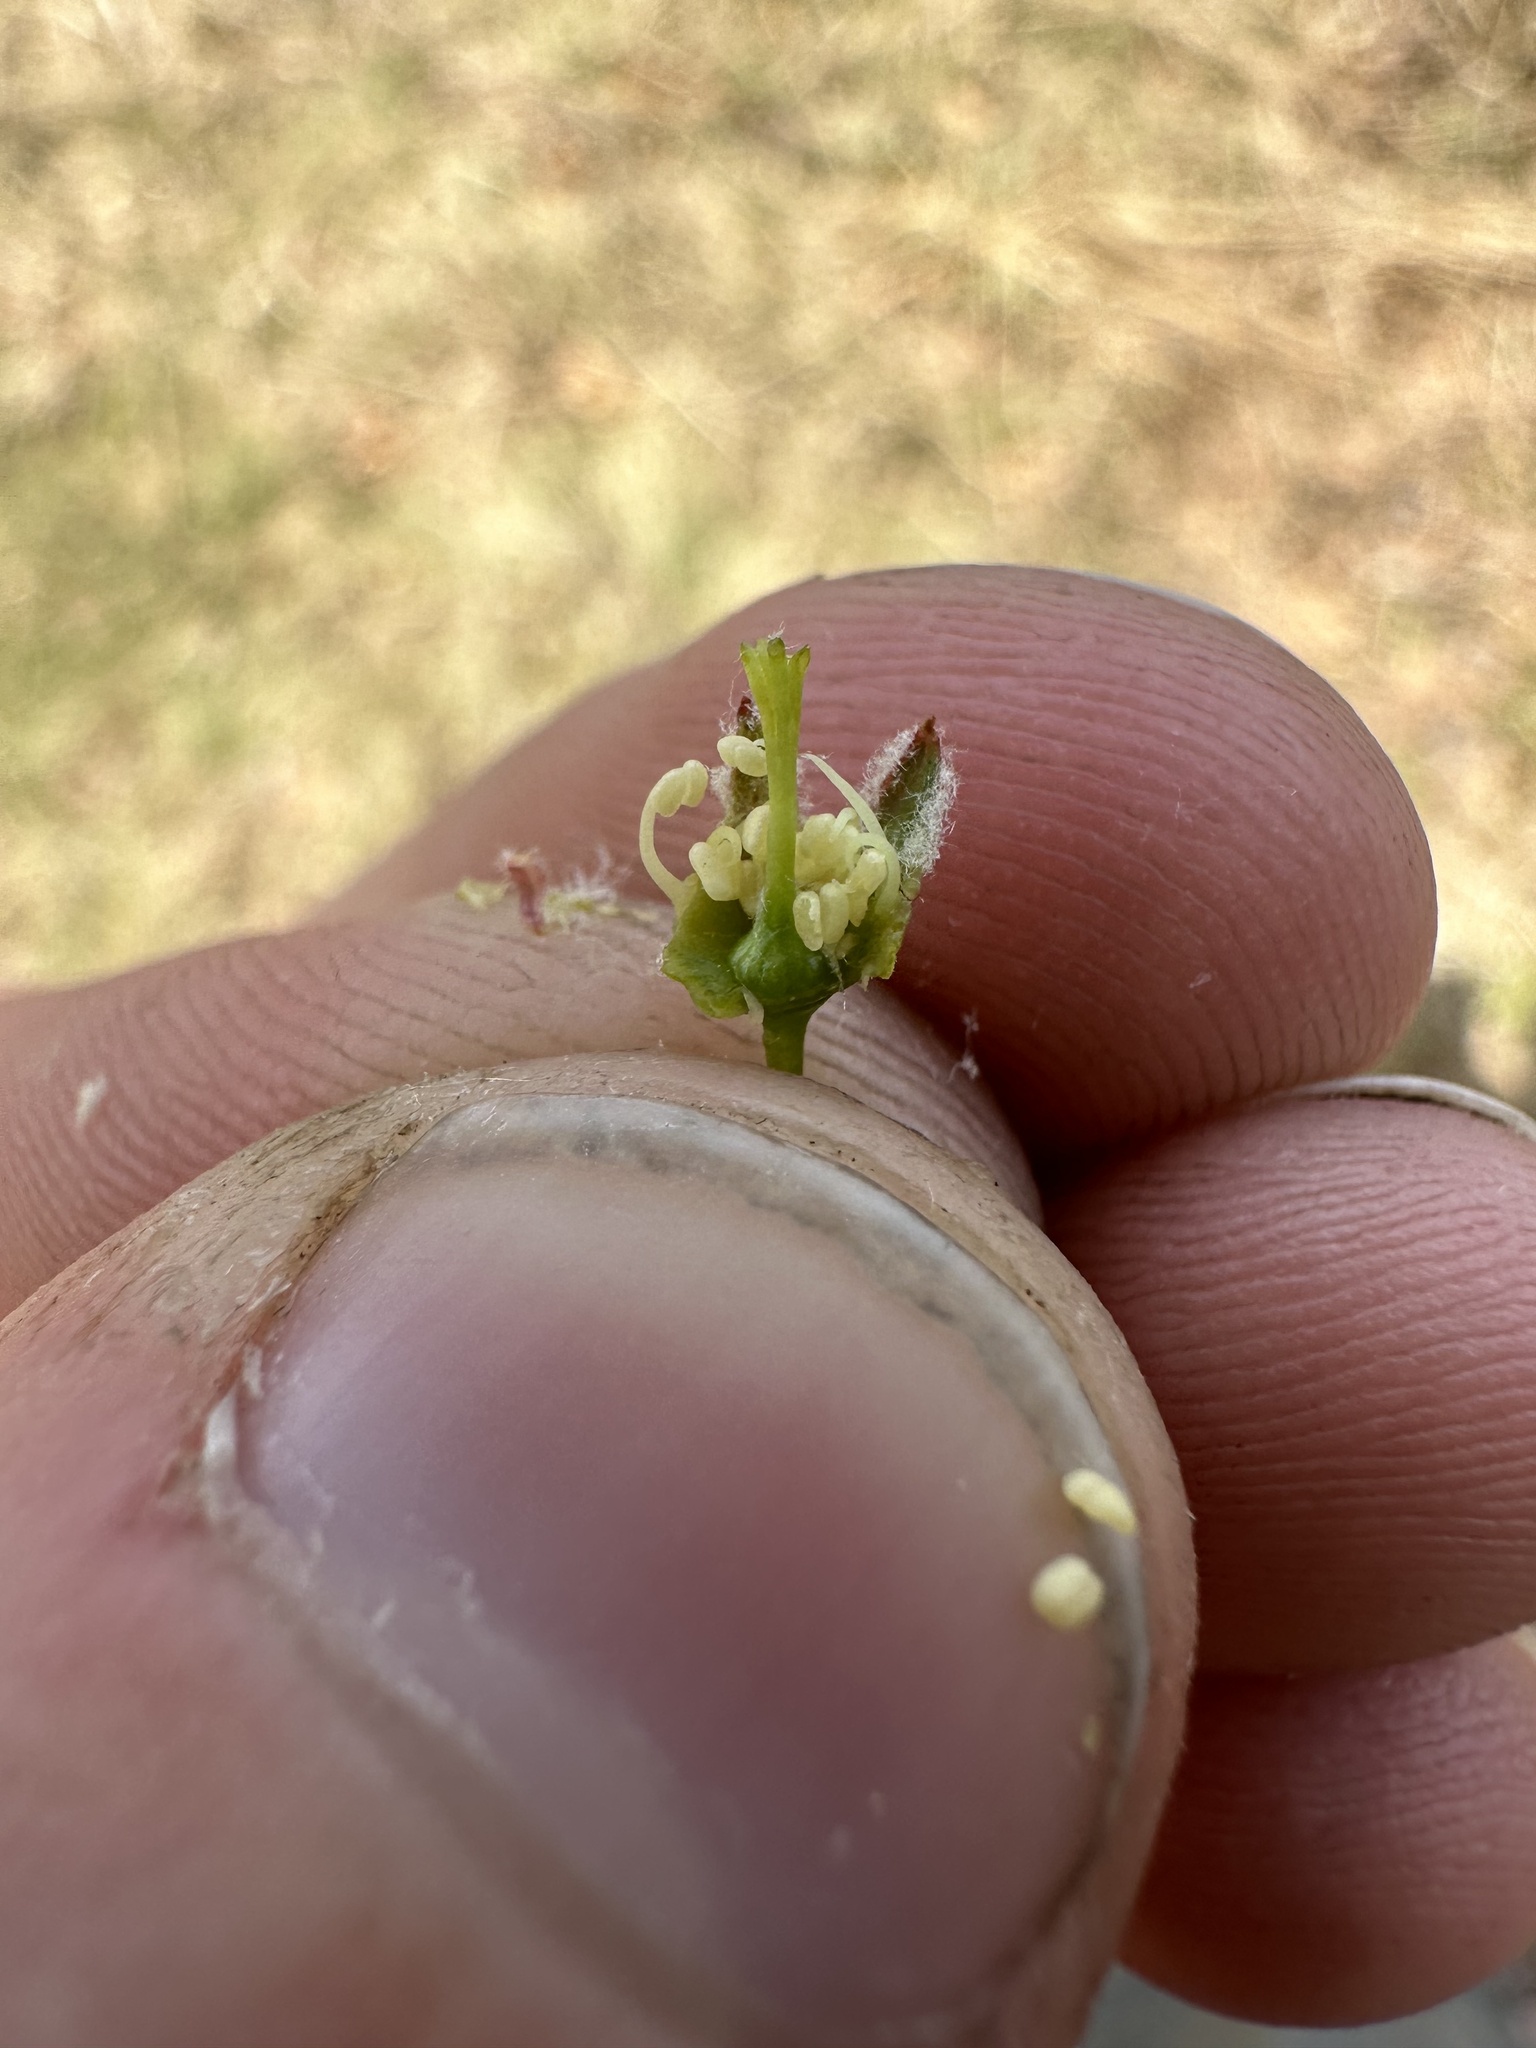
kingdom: Plantae
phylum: Tracheophyta
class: Magnoliopsida
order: Rosales
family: Rosaceae
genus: Amelanchier
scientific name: Amelanchier arborea
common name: Downy serviceberry
